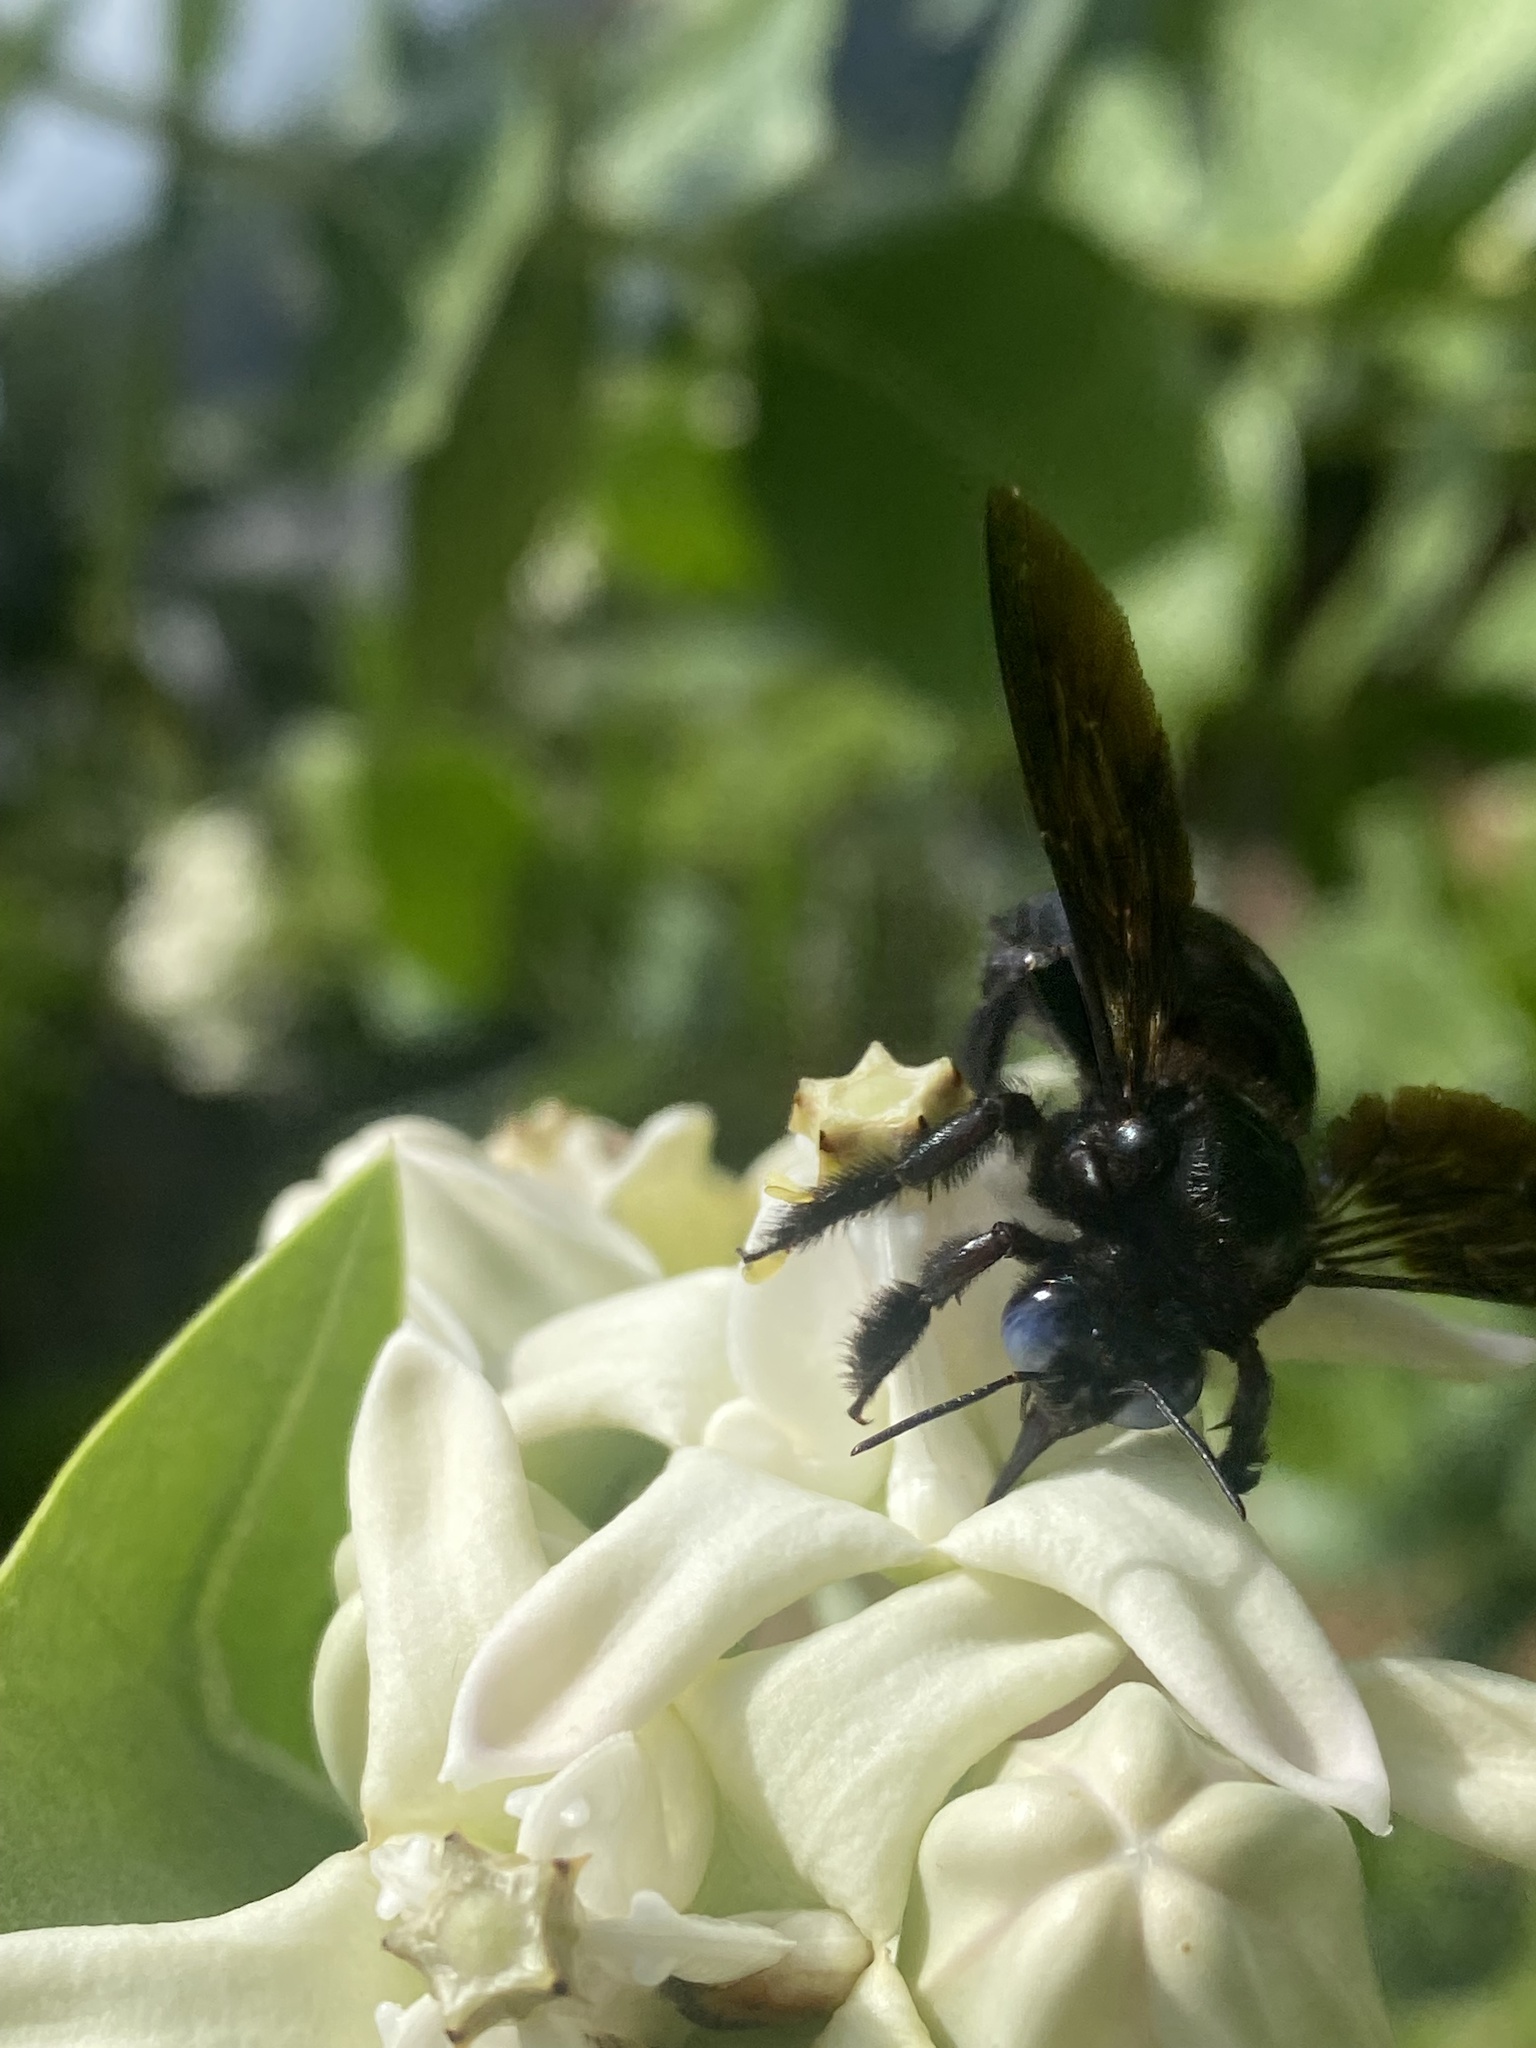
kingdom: Animalia
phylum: Arthropoda
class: Insecta
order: Hymenoptera
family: Apidae
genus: Xylocopa
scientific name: Xylocopa fenestrata
